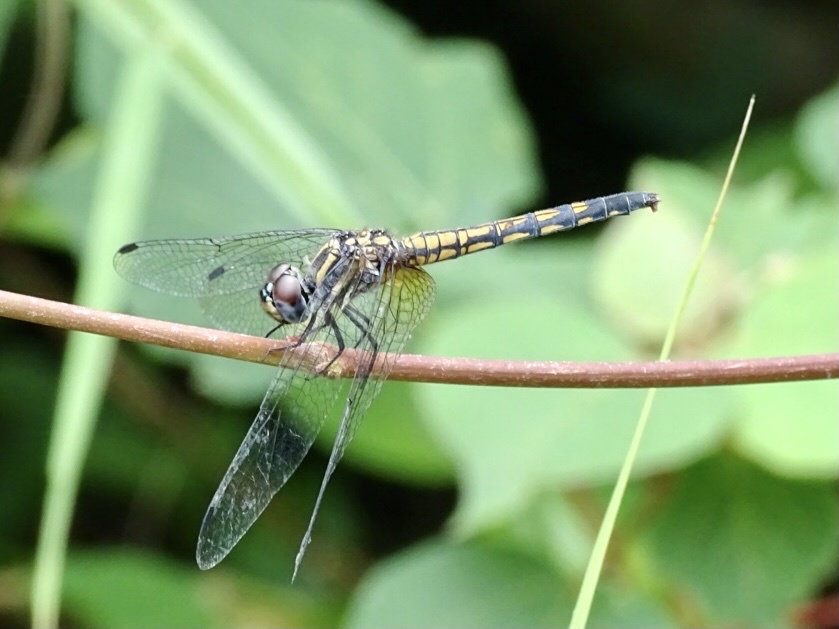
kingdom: Animalia
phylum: Arthropoda
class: Insecta
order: Odonata
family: Libellulidae
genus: Trithemis
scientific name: Trithemis festiva
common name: Indigo dropwing
